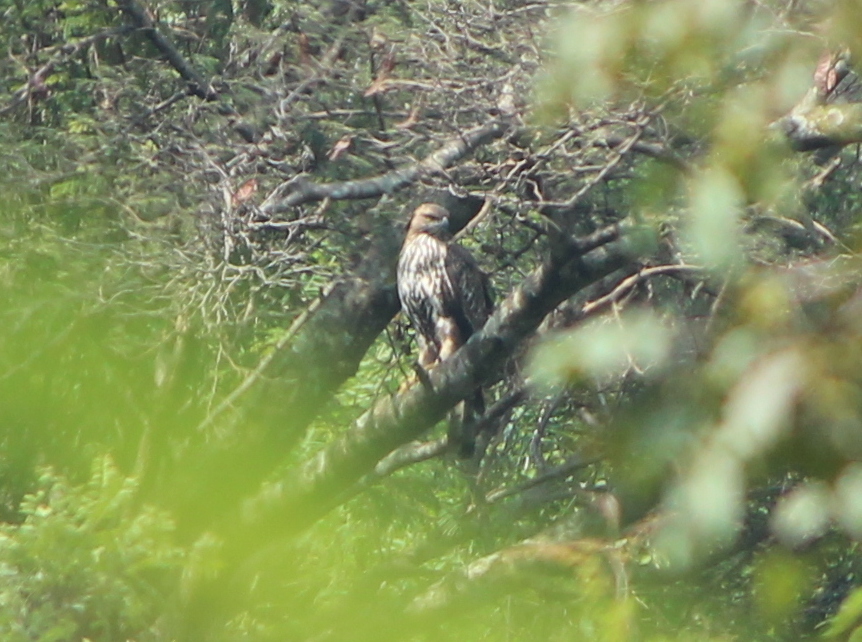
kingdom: Animalia
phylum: Chordata
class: Aves
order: Accipitriformes
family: Accipitridae
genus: Nisaetus
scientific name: Nisaetus cirrhatus
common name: Changeable hawk-eagle
